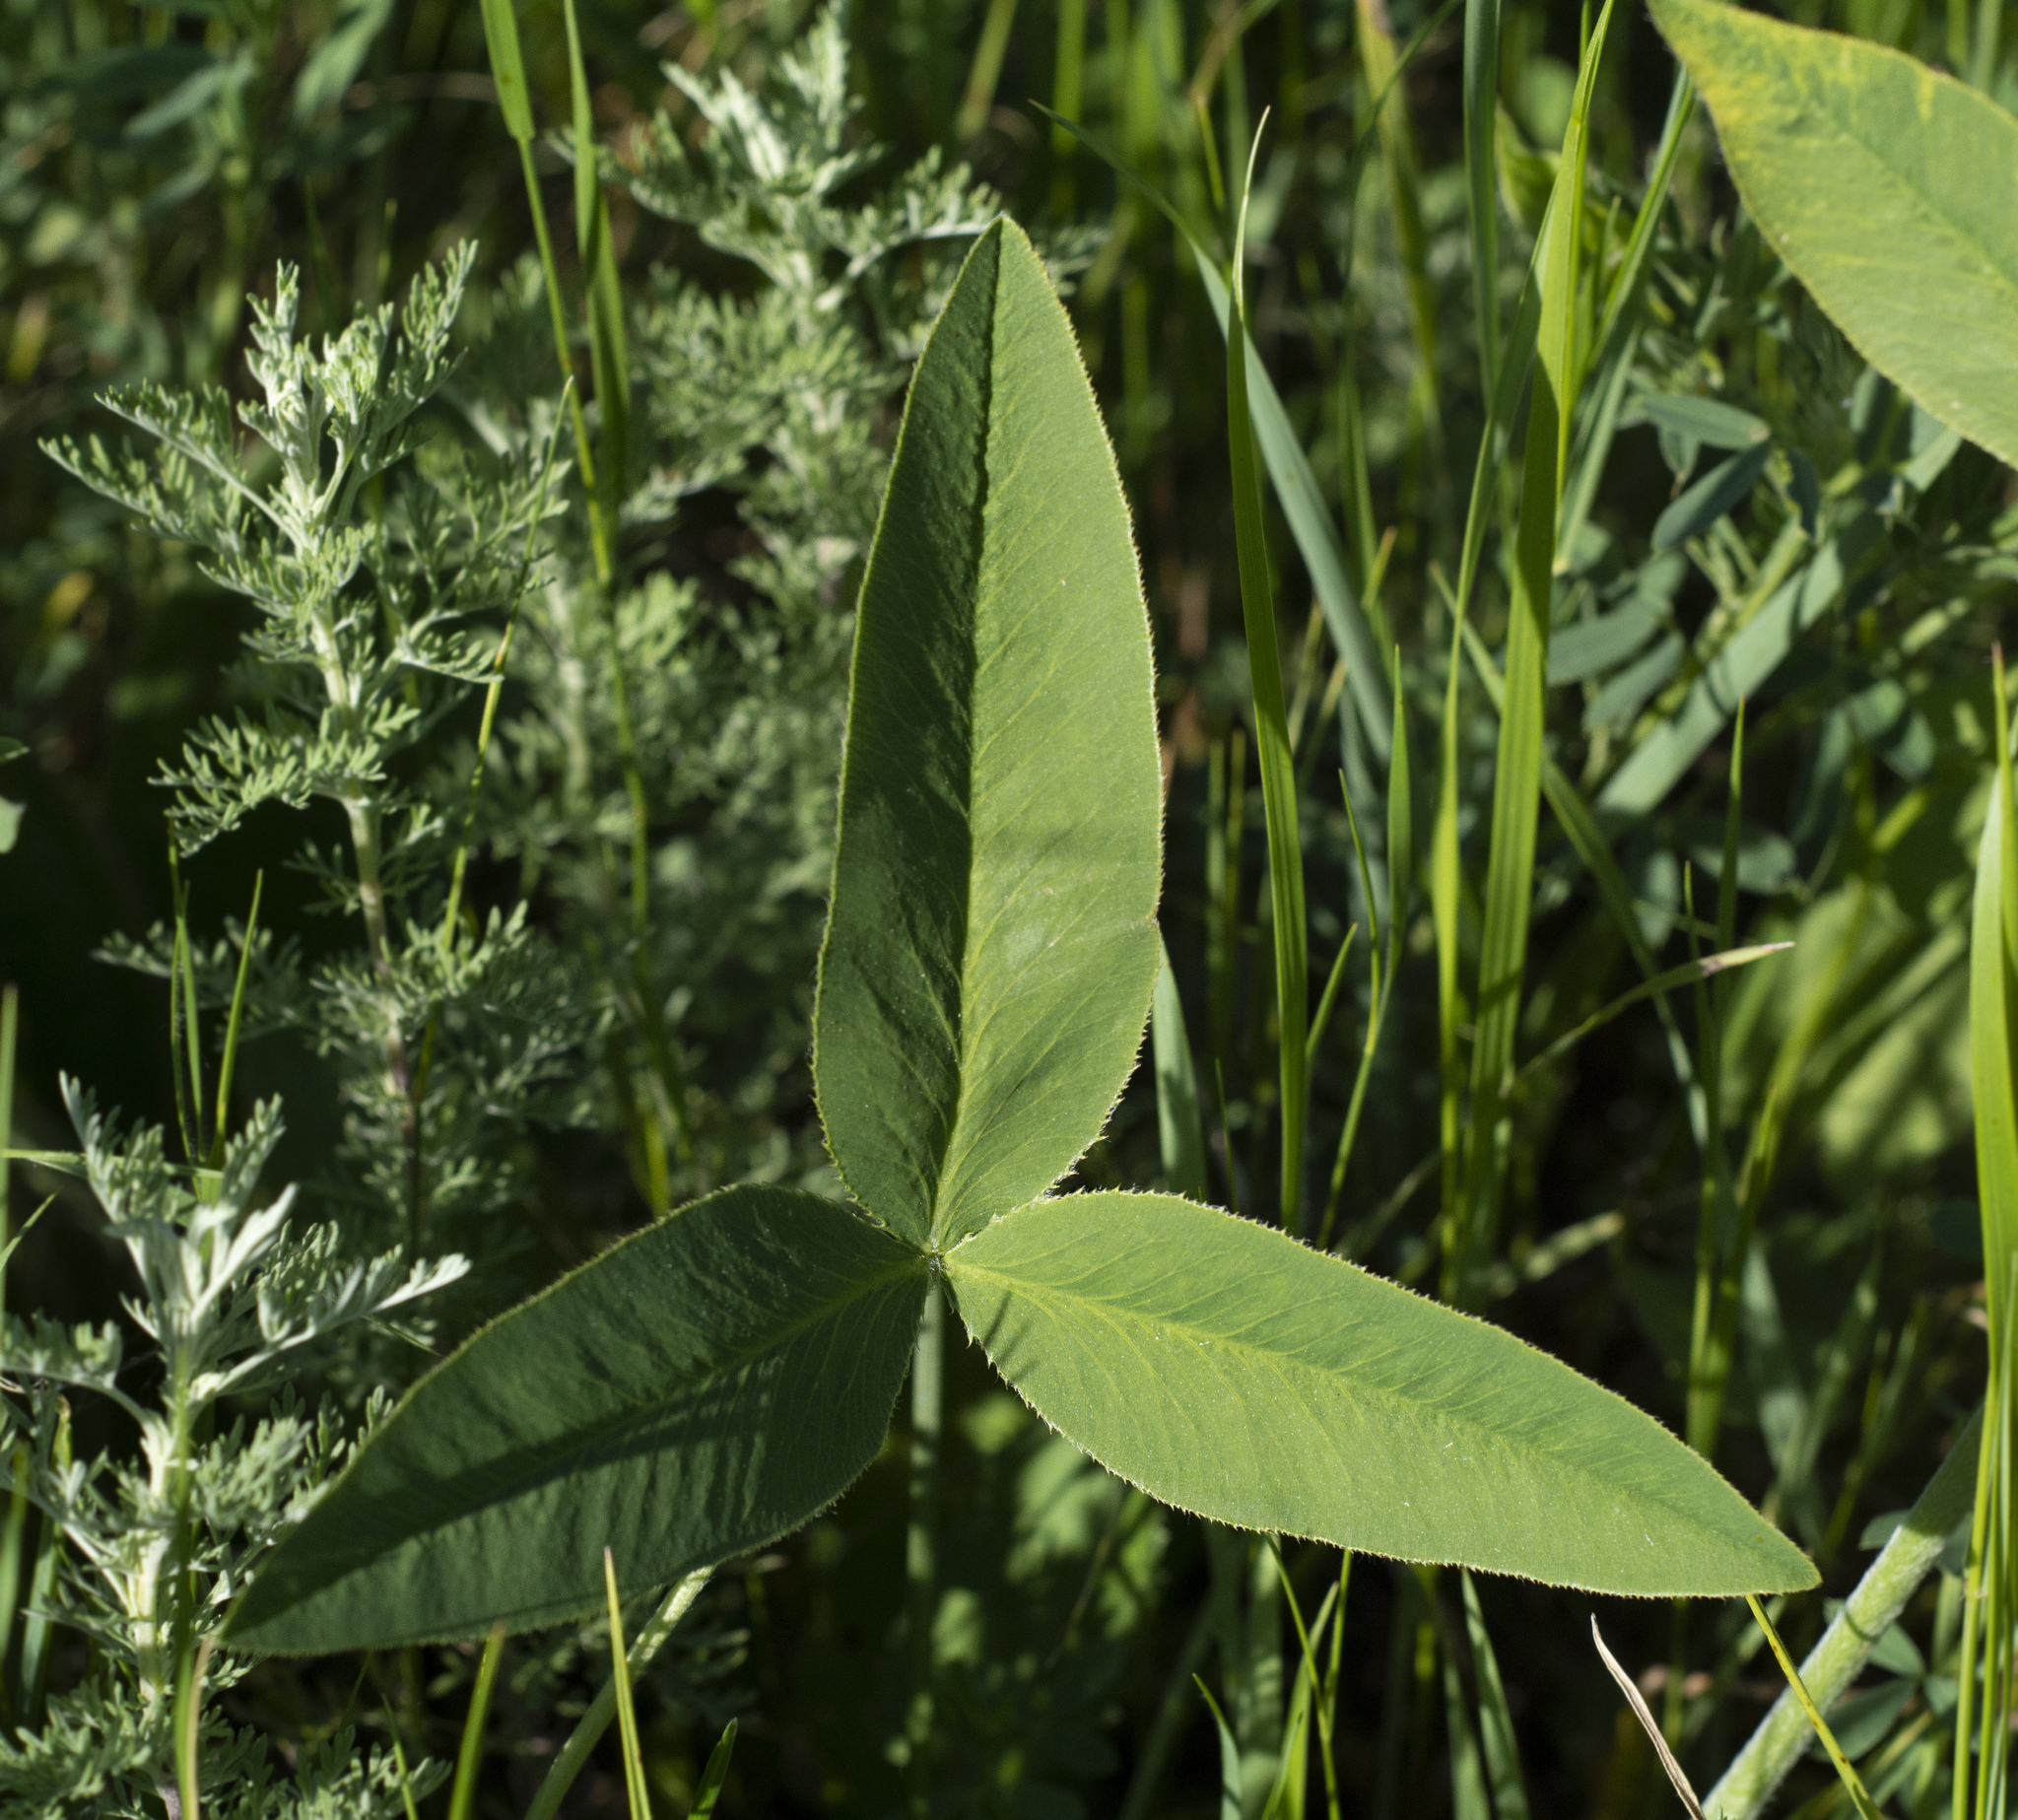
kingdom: Plantae
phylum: Tracheophyta
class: Magnoliopsida
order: Fabales
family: Fabaceae
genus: Trifolium
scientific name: Trifolium montanum
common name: Mountain clover
